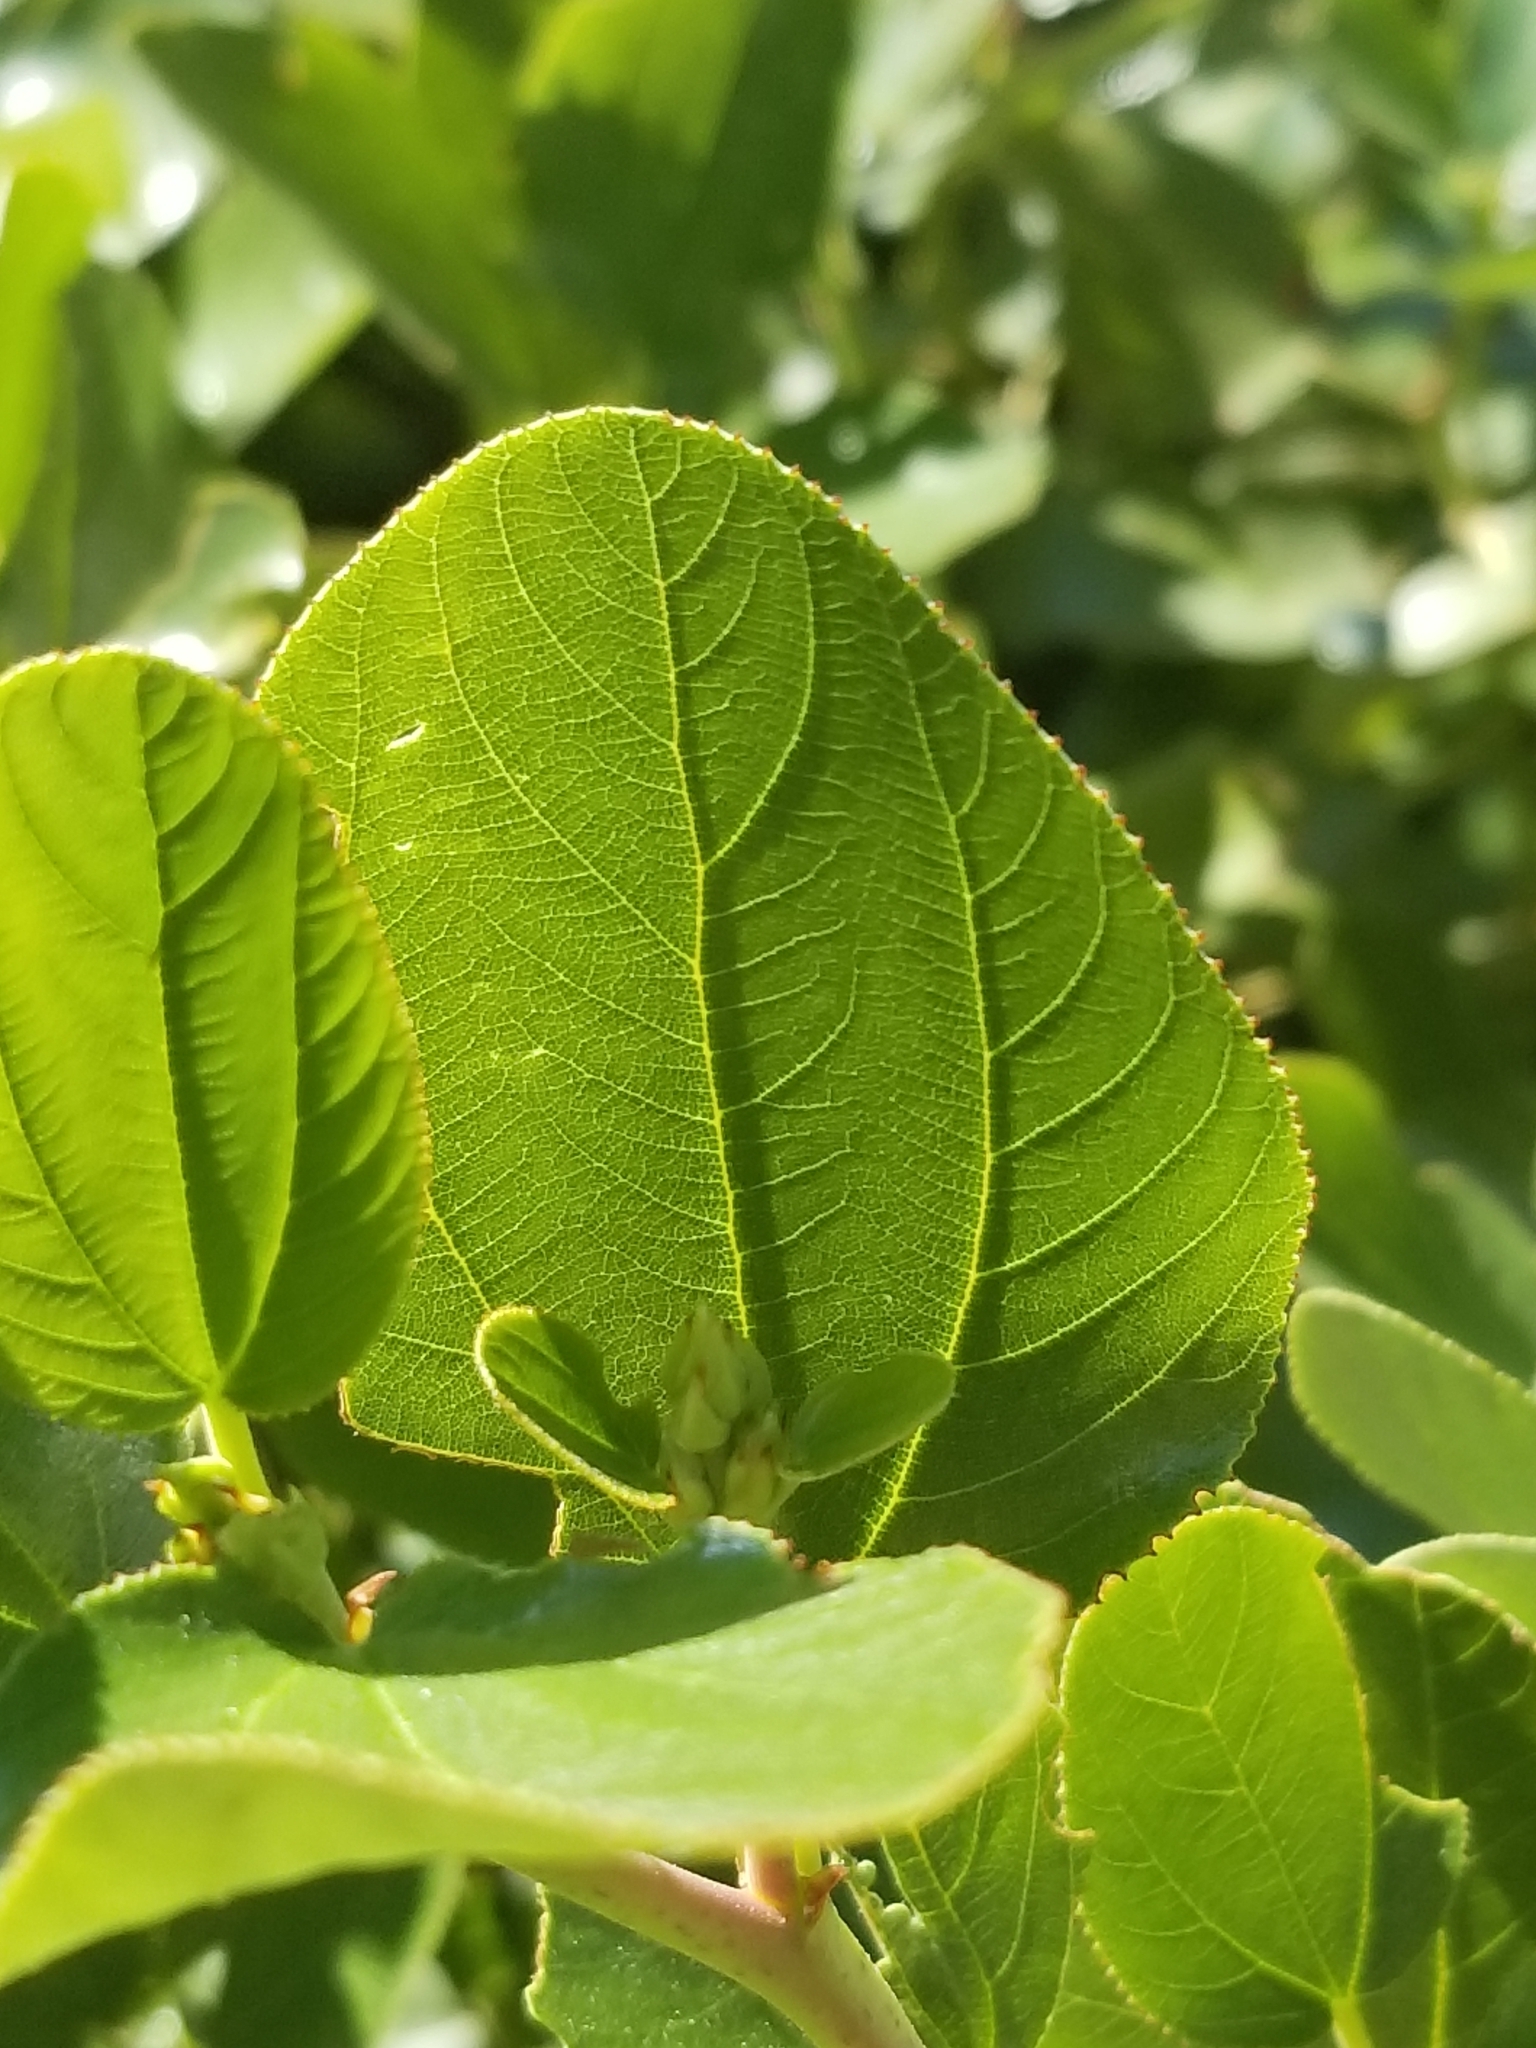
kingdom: Plantae
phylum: Tracheophyta
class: Magnoliopsida
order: Rosales
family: Rhamnaceae
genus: Ceanothus
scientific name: Ceanothus velutinus
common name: Snowbrush
